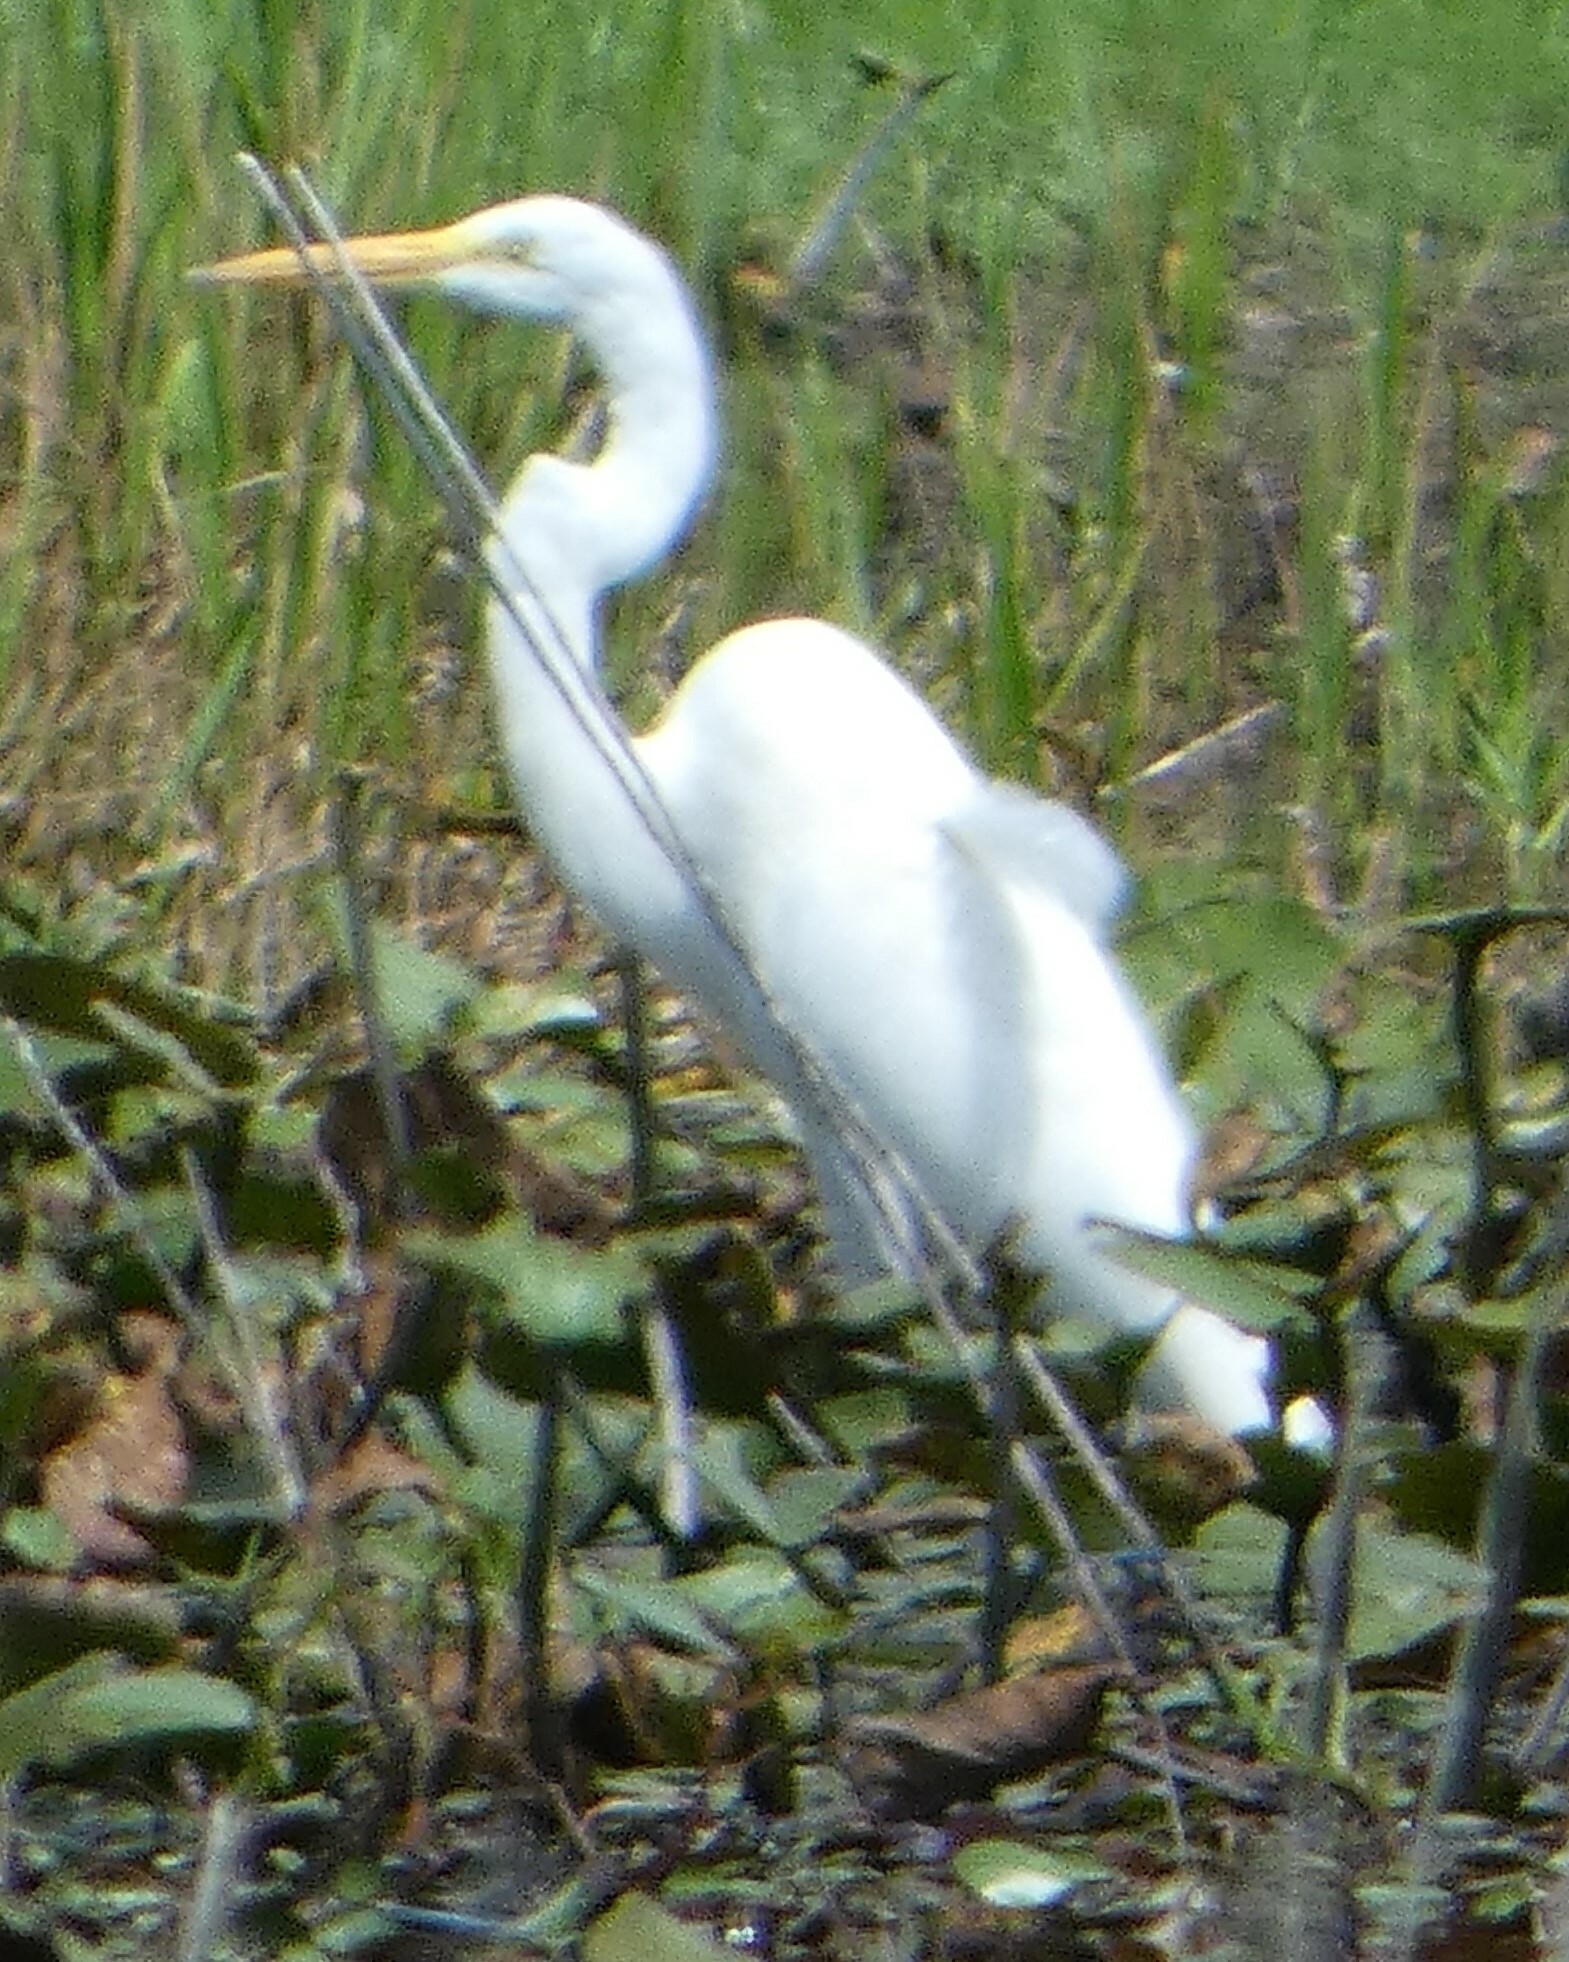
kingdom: Animalia
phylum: Chordata
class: Aves
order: Pelecaniformes
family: Ardeidae
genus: Ardea
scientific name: Ardea alba
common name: Great egret
